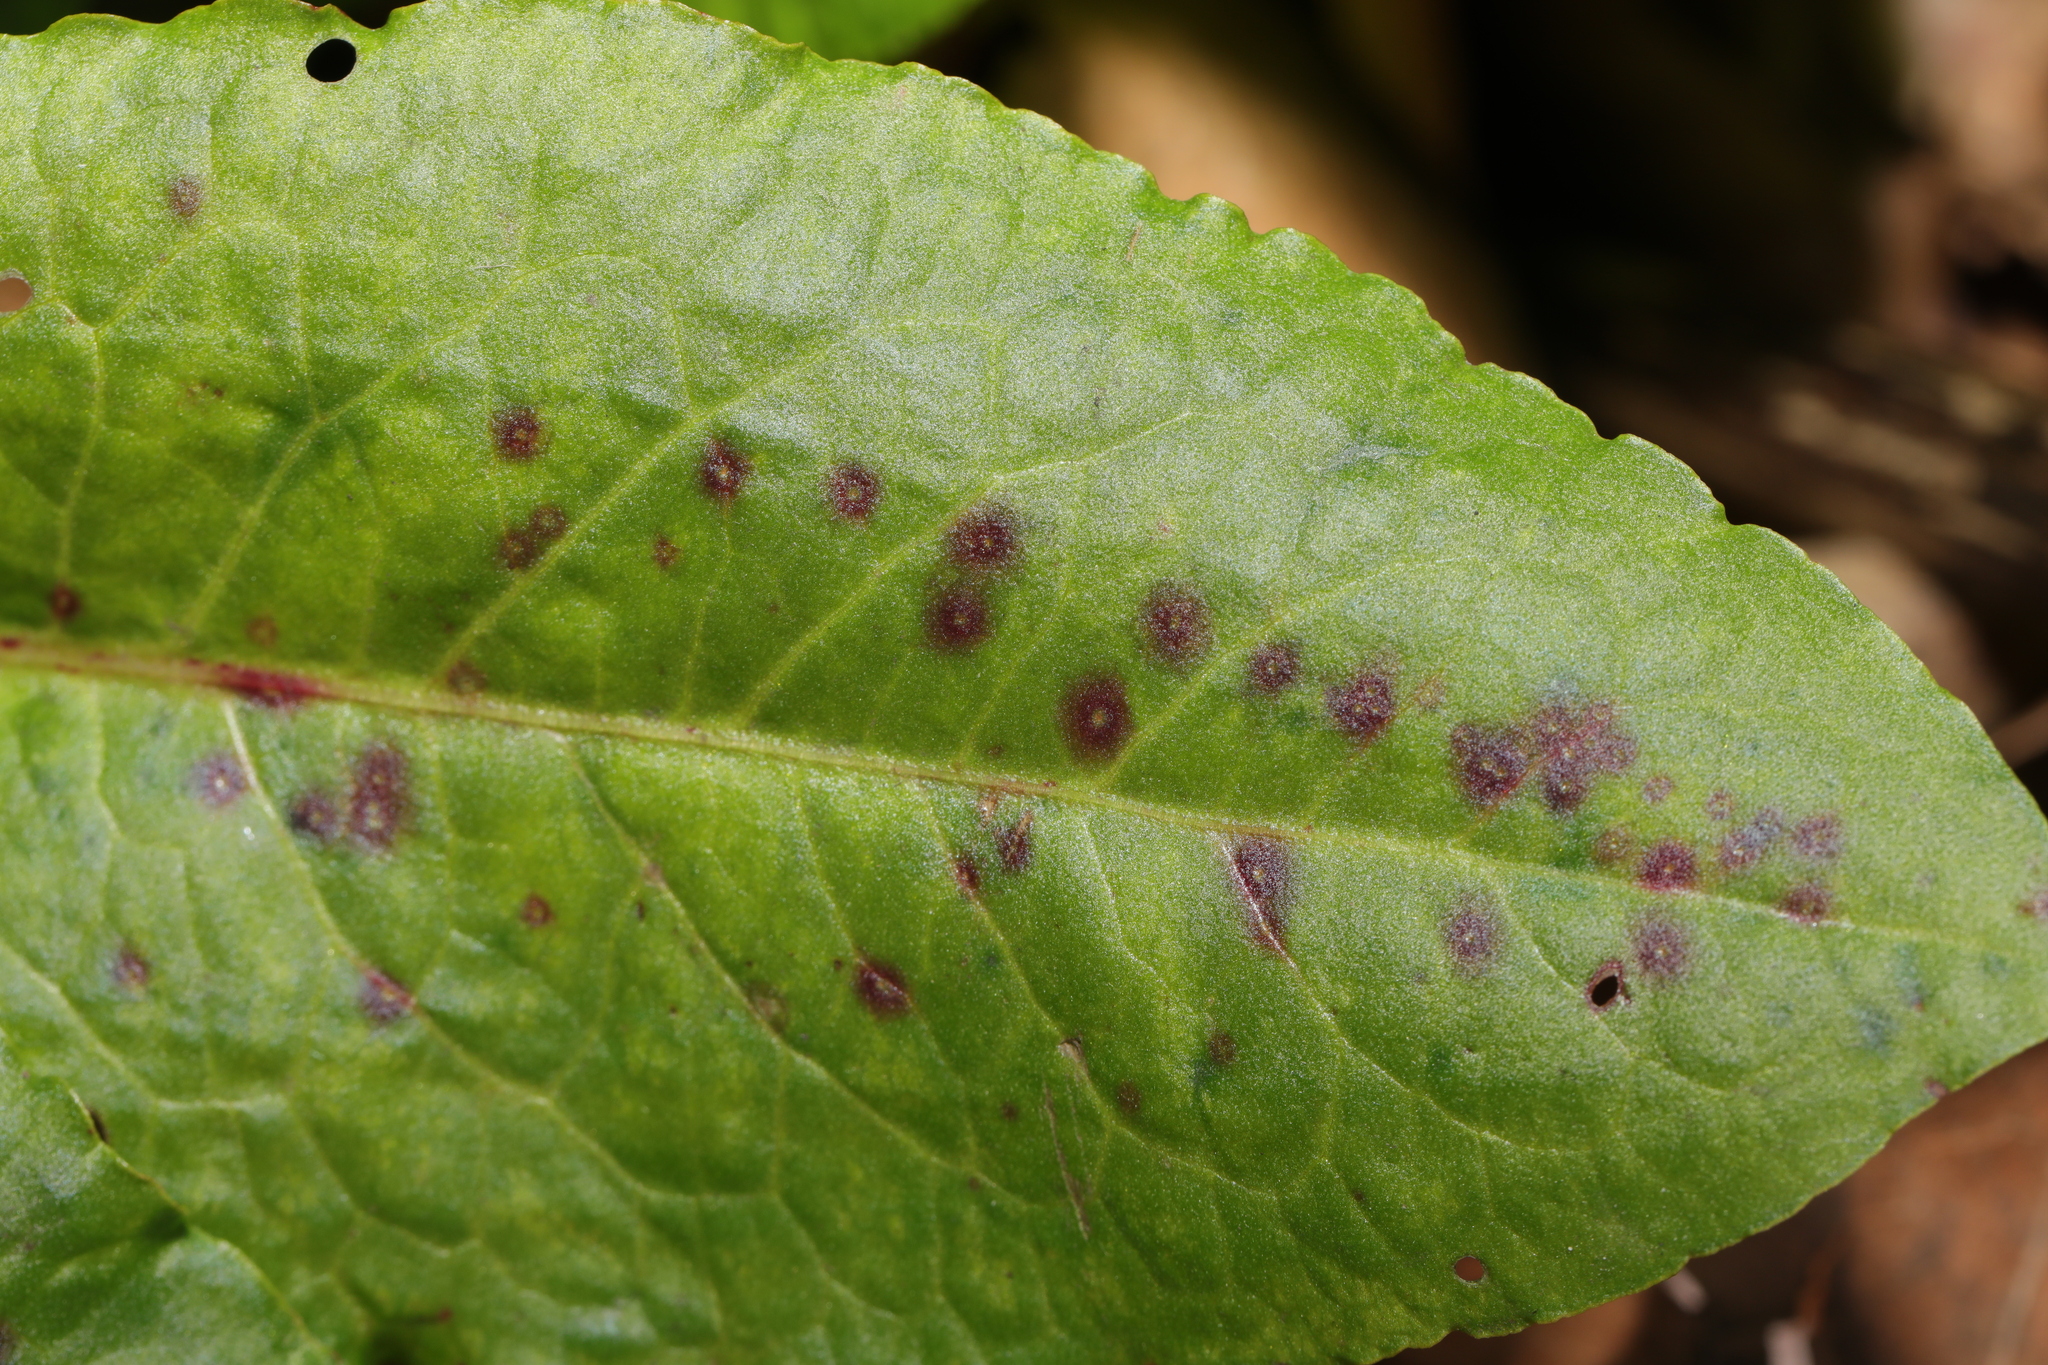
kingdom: Fungi
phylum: Ascomycota
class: Dothideomycetes
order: Mycosphaerellales
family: Mycosphaerellaceae
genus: Ramularia
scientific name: Ramularia rubella
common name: Red dock spot
